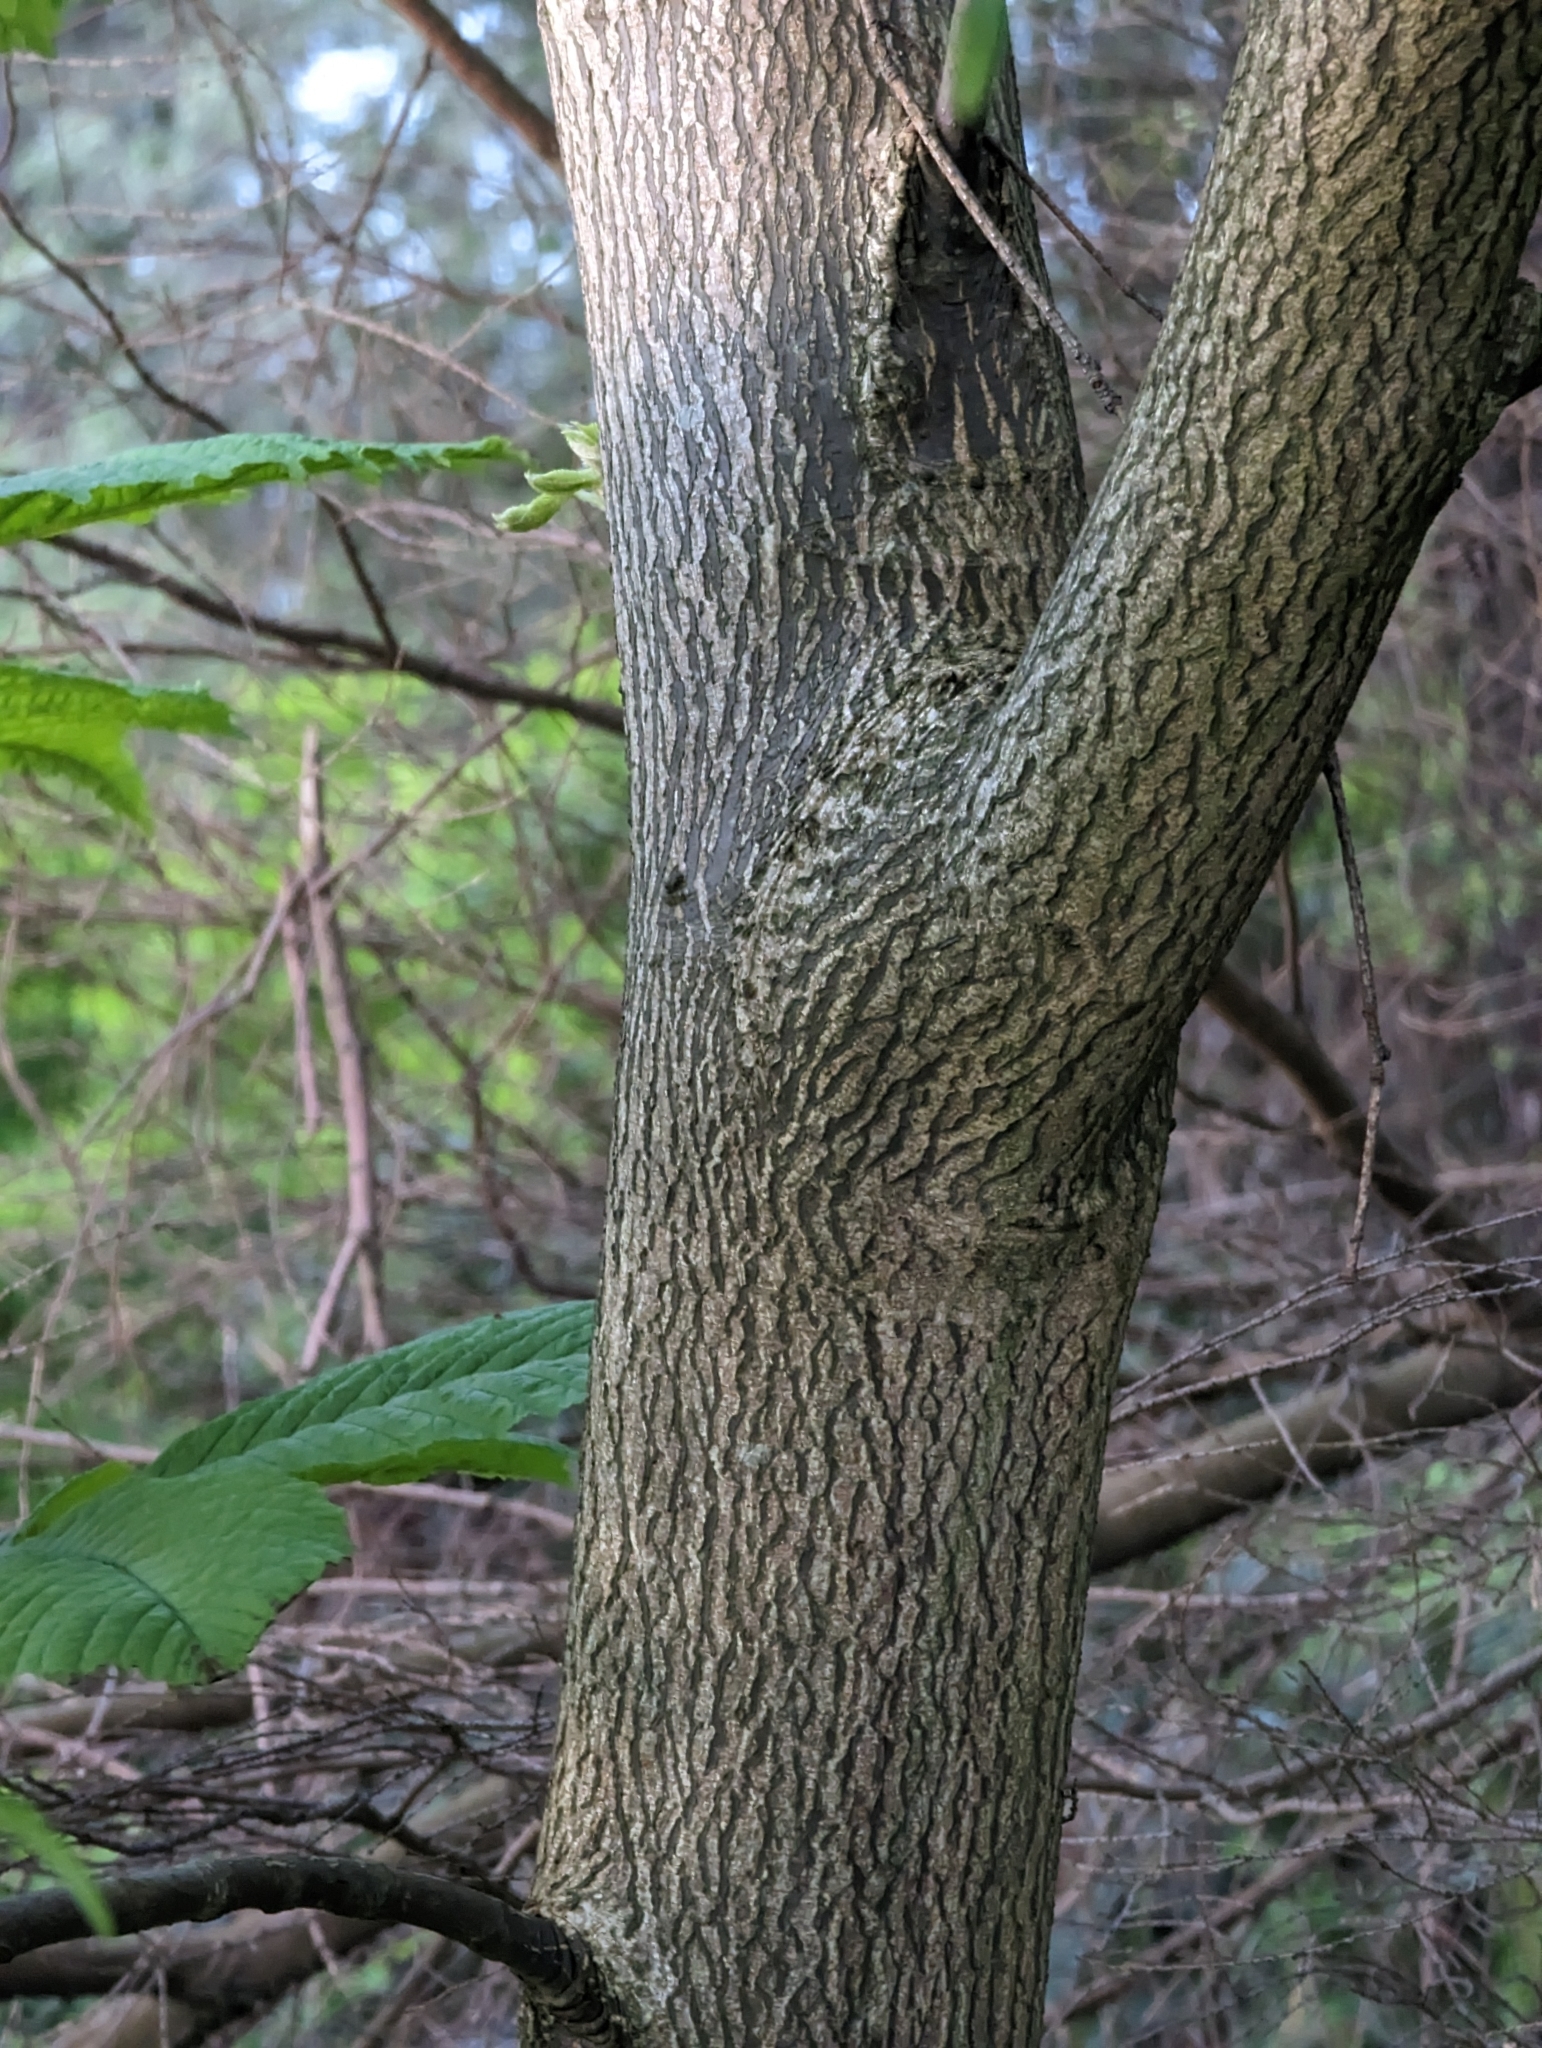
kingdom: Plantae
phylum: Tracheophyta
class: Magnoliopsida
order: Sapindales
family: Sapindaceae
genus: Aesculus
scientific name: Aesculus hippocastanum
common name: Horse-chestnut
